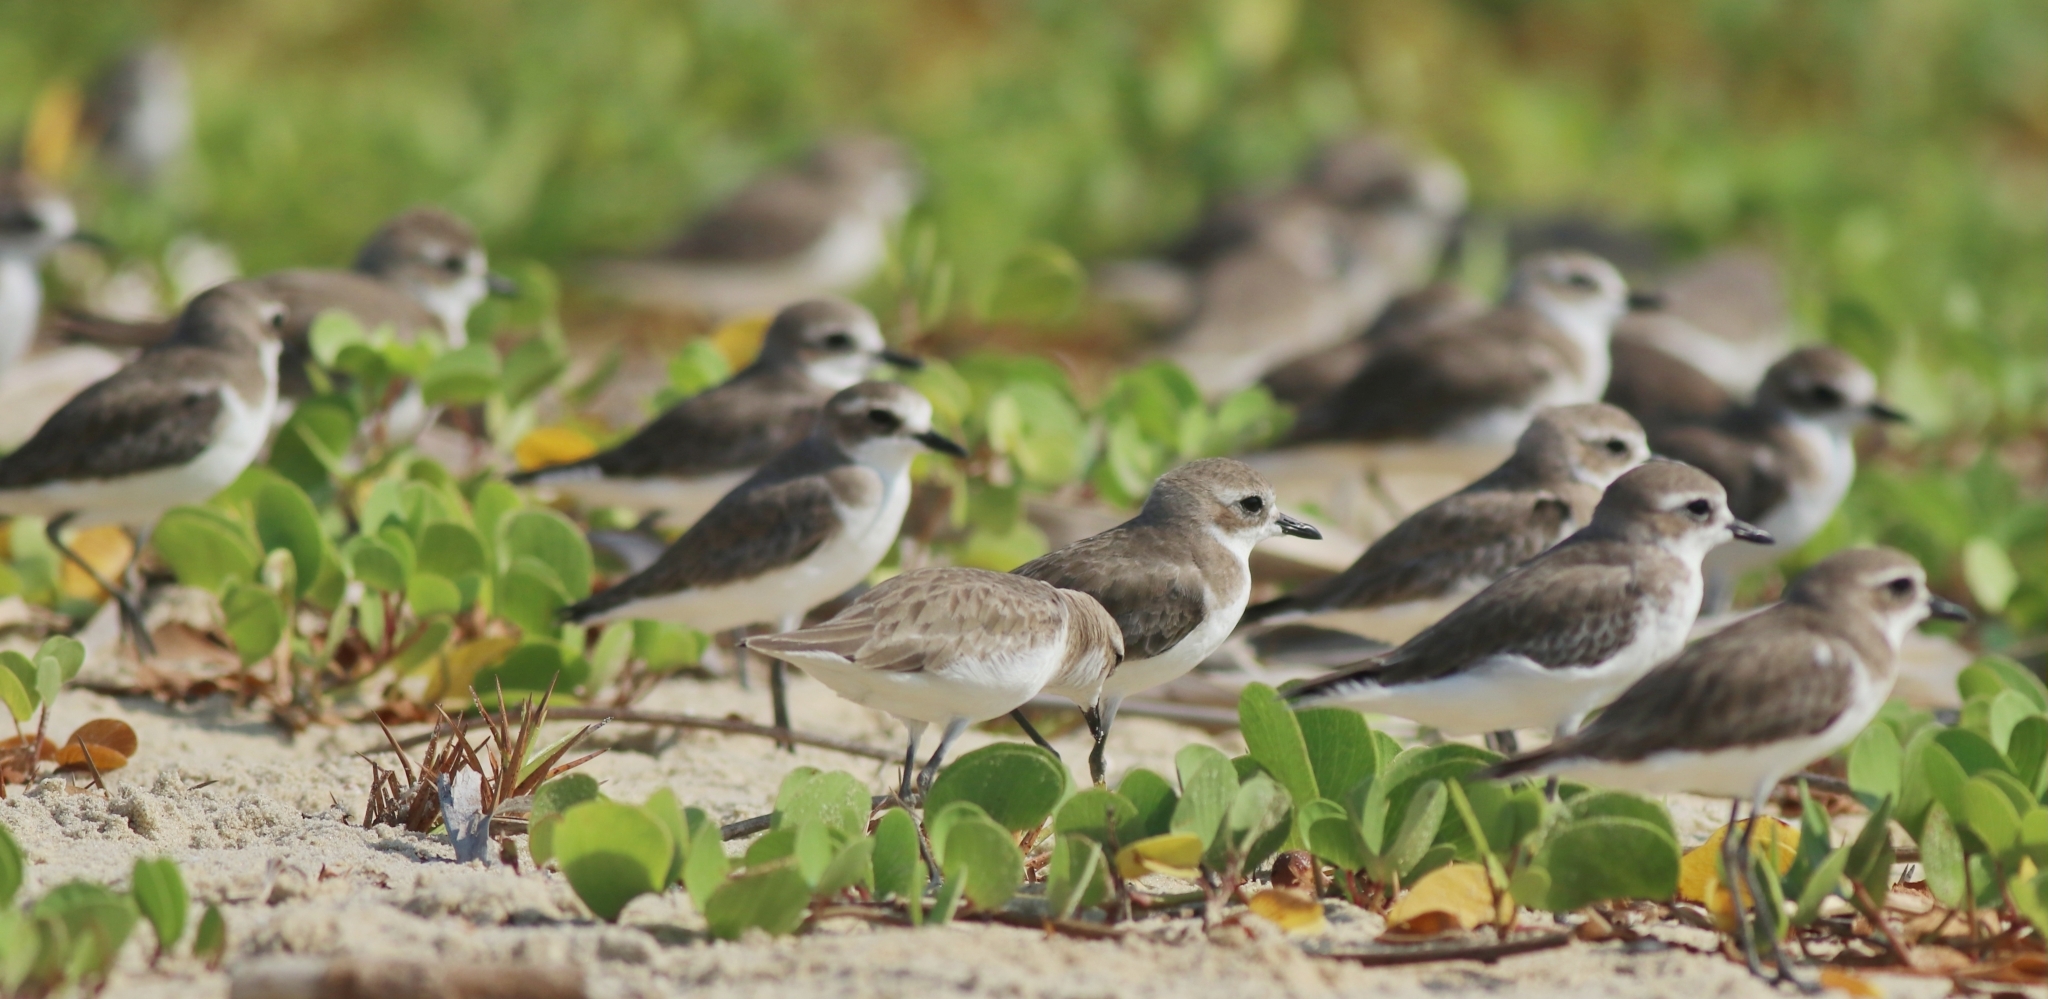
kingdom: Animalia
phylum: Chordata
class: Aves
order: Charadriiformes
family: Charadriidae
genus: Anarhynchus
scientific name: Anarhynchus
